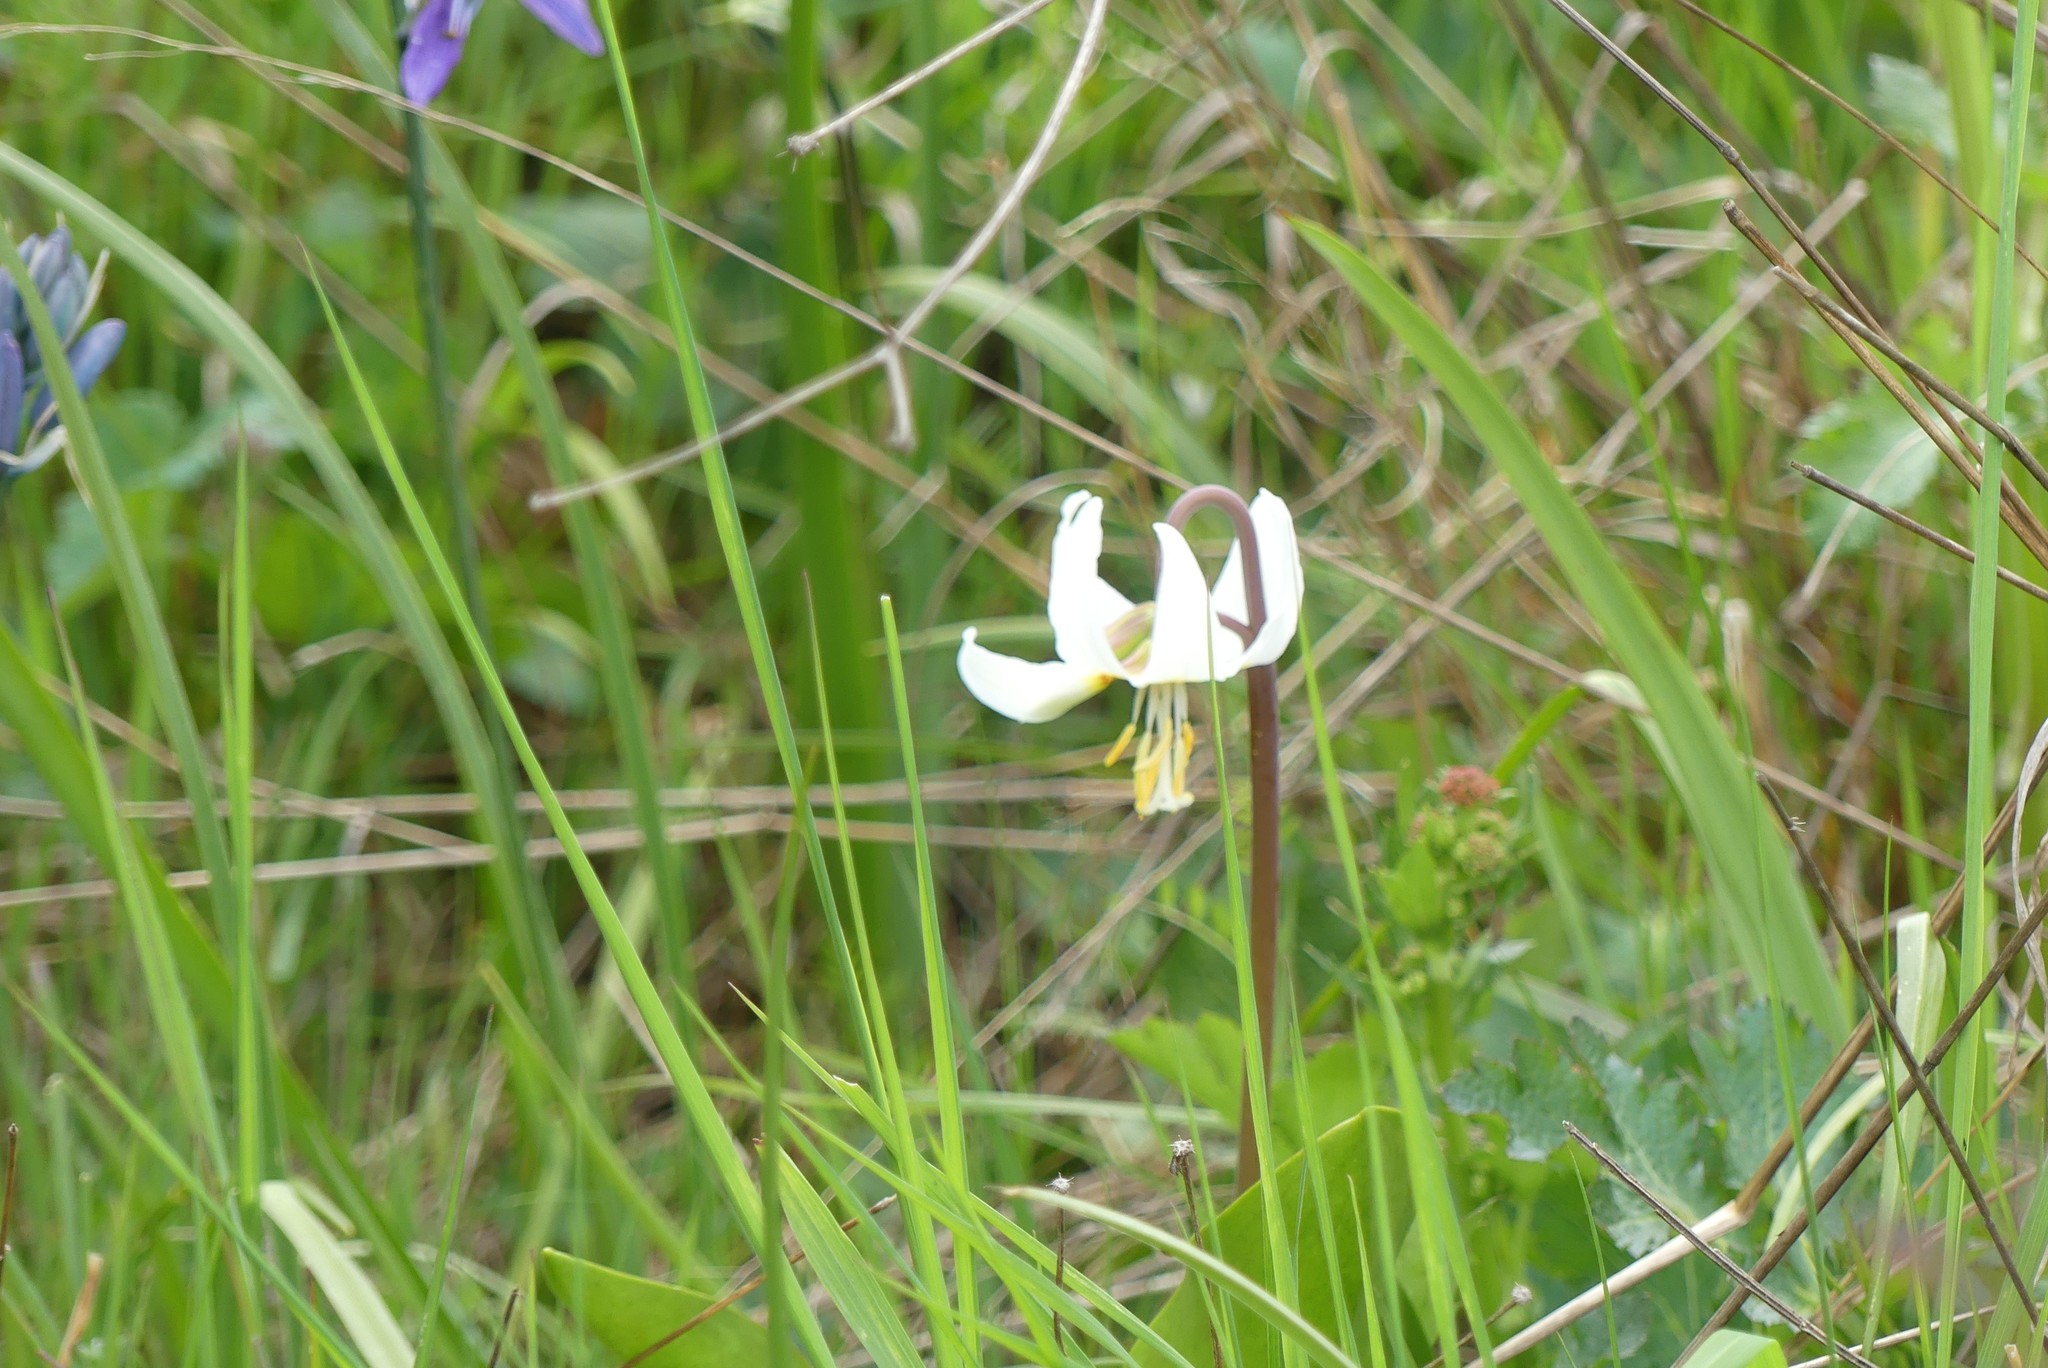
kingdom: Plantae
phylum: Tracheophyta
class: Liliopsida
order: Liliales
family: Liliaceae
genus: Erythronium
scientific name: Erythronium oregonum
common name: Giant adder's-tongue
